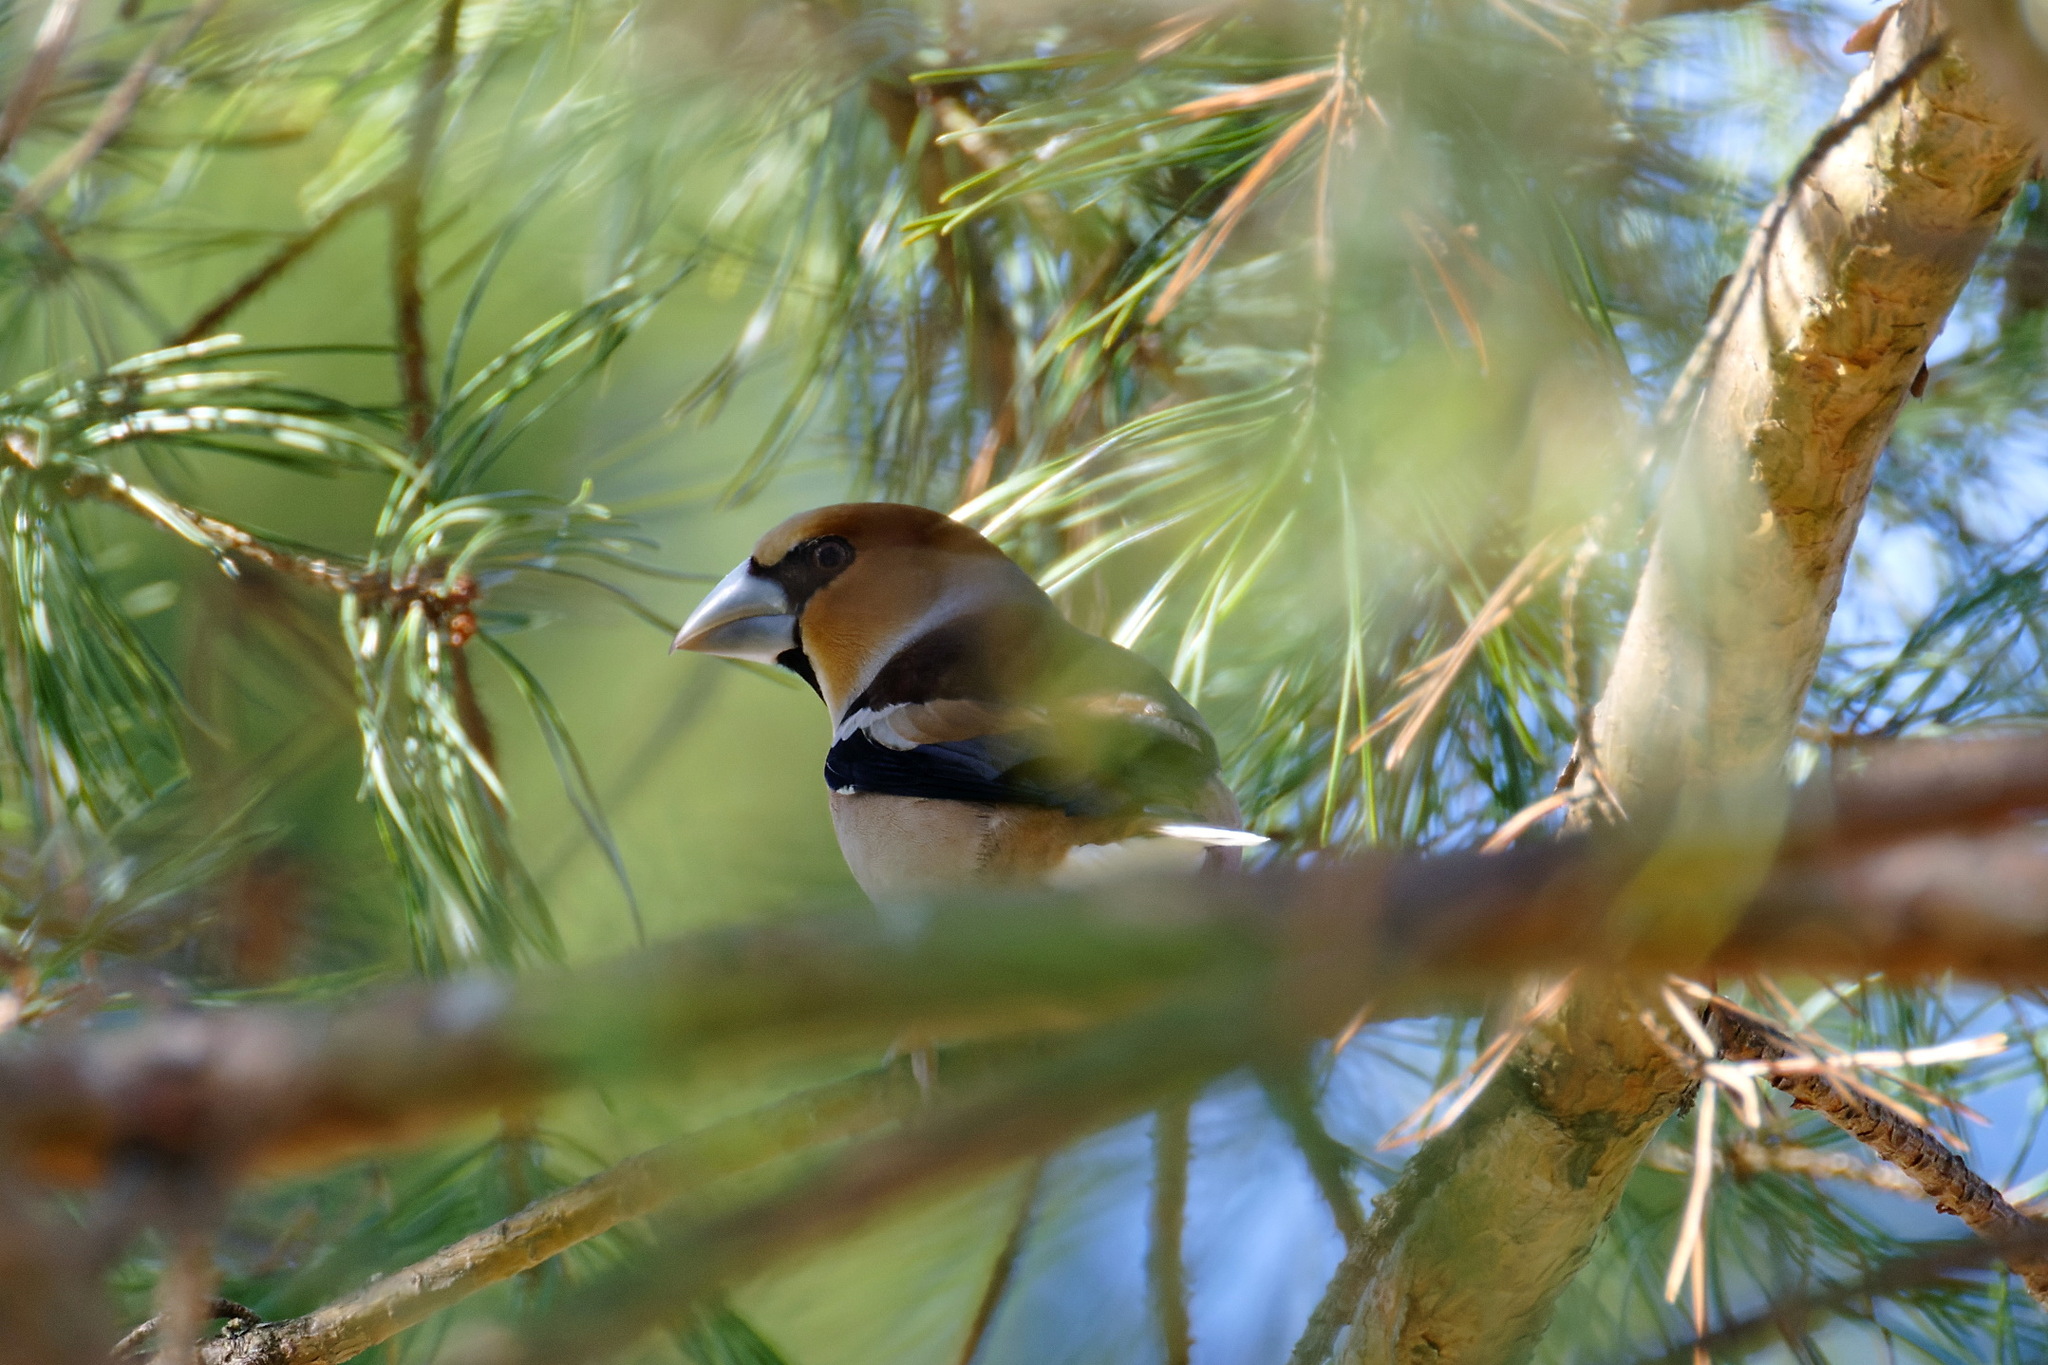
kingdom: Animalia
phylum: Chordata
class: Aves
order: Passeriformes
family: Fringillidae
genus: Coccothraustes
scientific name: Coccothraustes coccothraustes
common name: Hawfinch
